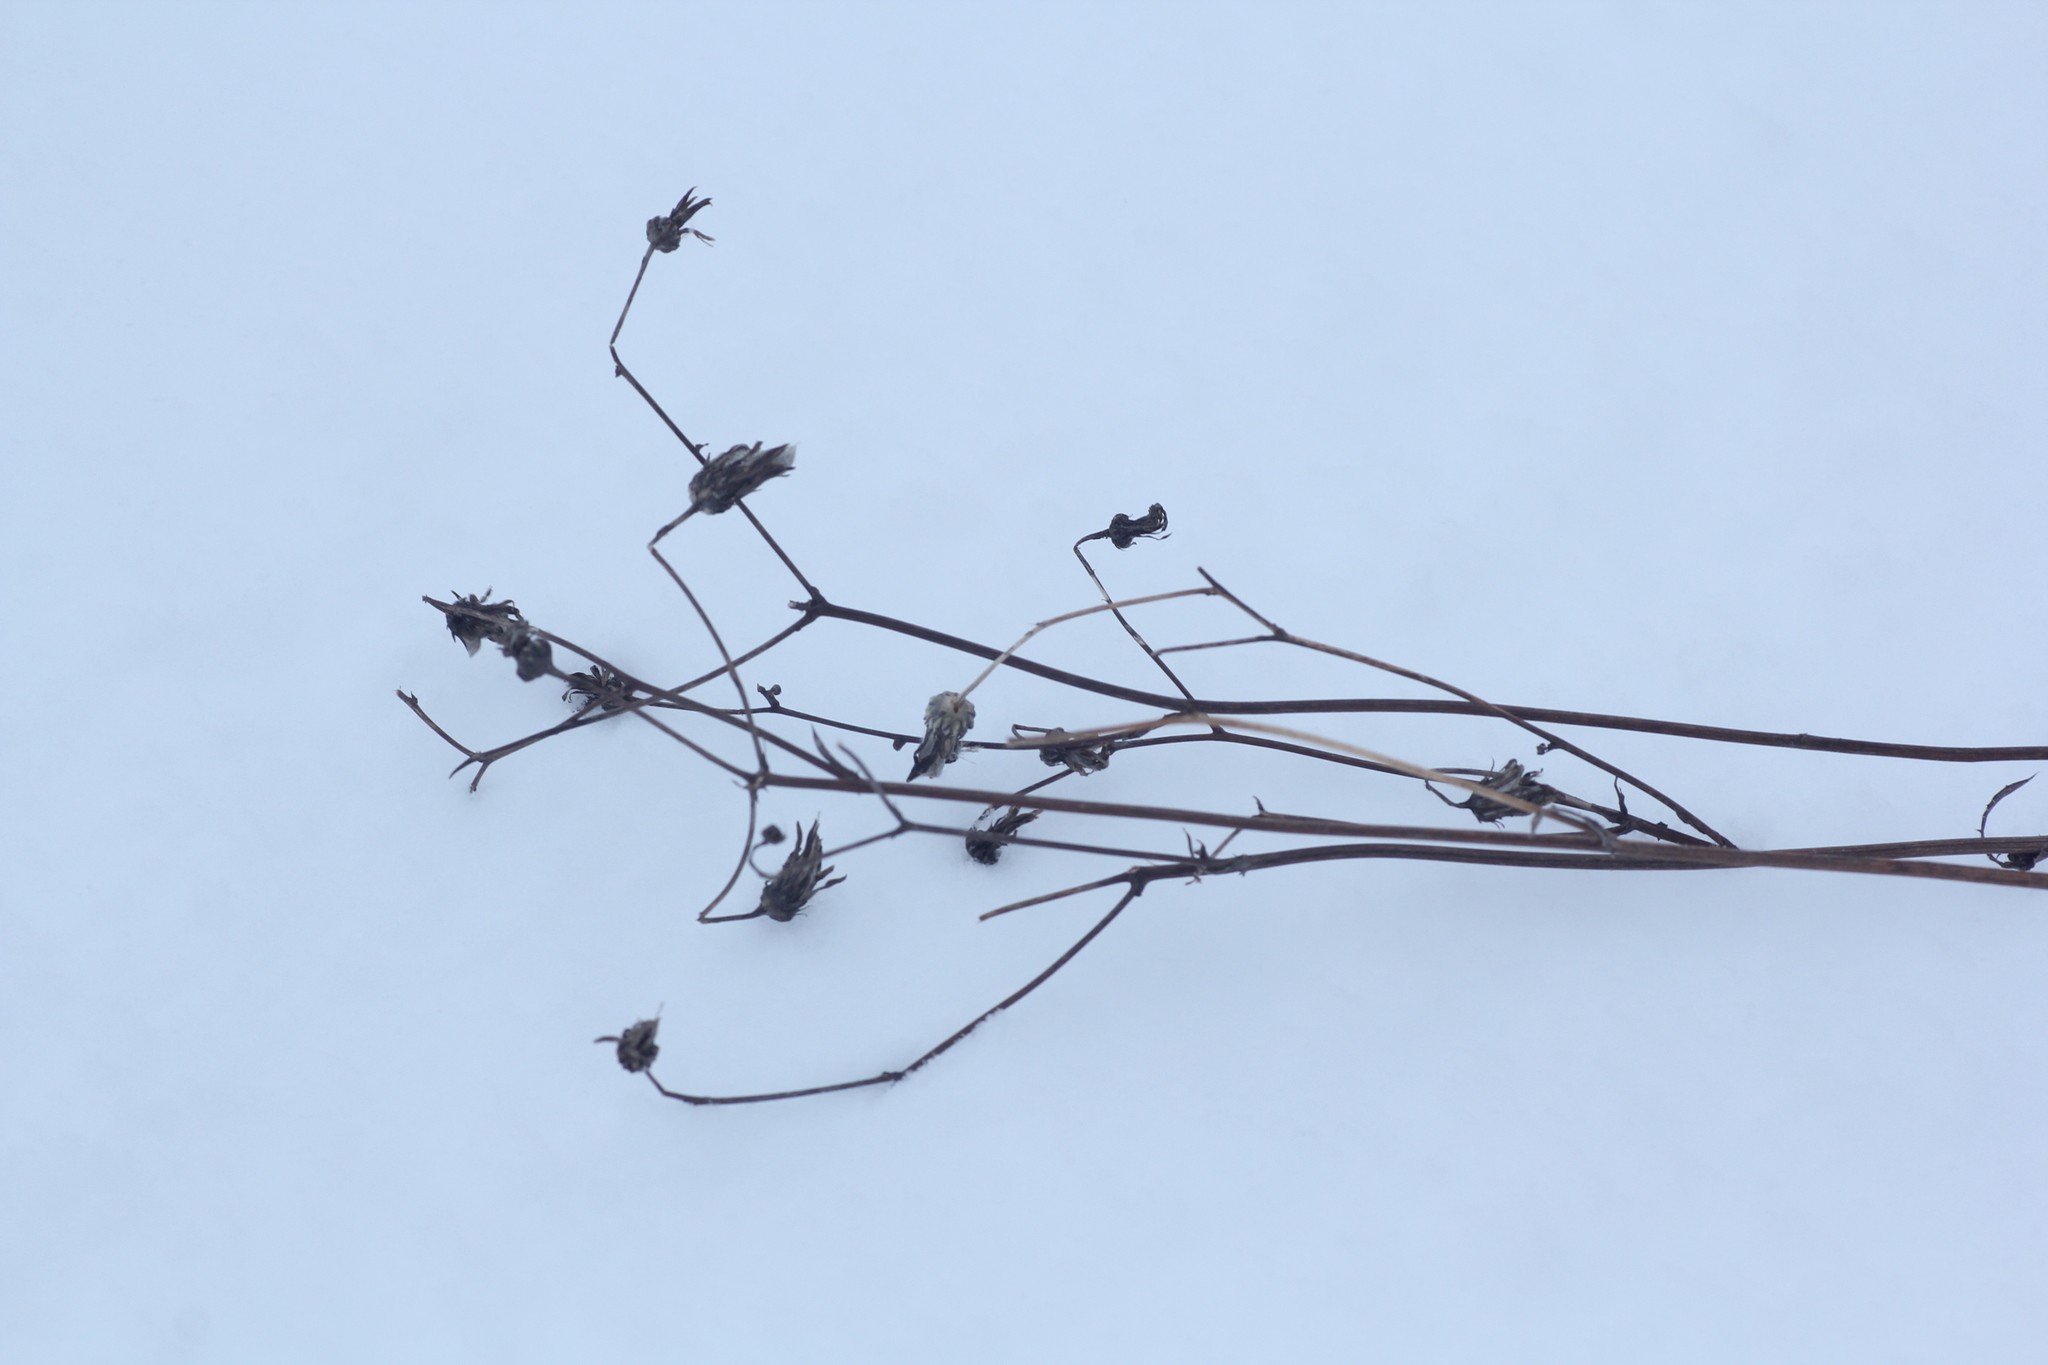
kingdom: Plantae
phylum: Tracheophyta
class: Magnoliopsida
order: Asterales
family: Asteraceae
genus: Lactuca
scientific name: Lactuca sibirica
